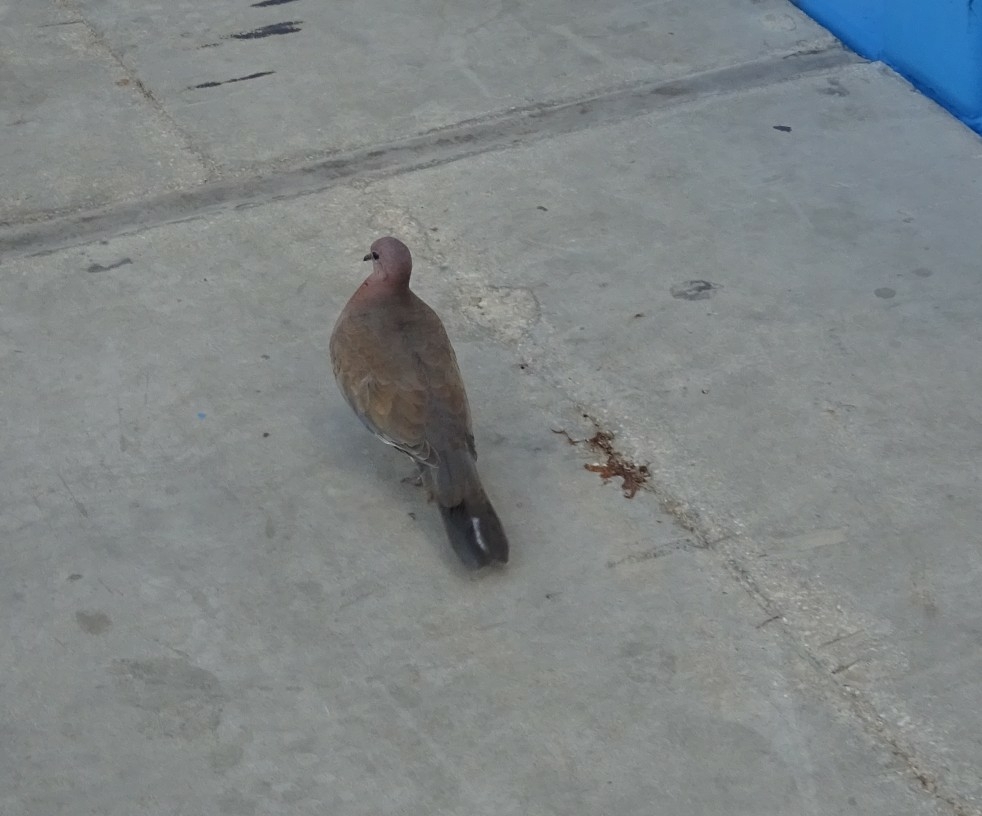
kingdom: Animalia
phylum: Chordata
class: Aves
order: Columbiformes
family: Columbidae
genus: Spilopelia
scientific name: Spilopelia senegalensis
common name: Laughing dove
